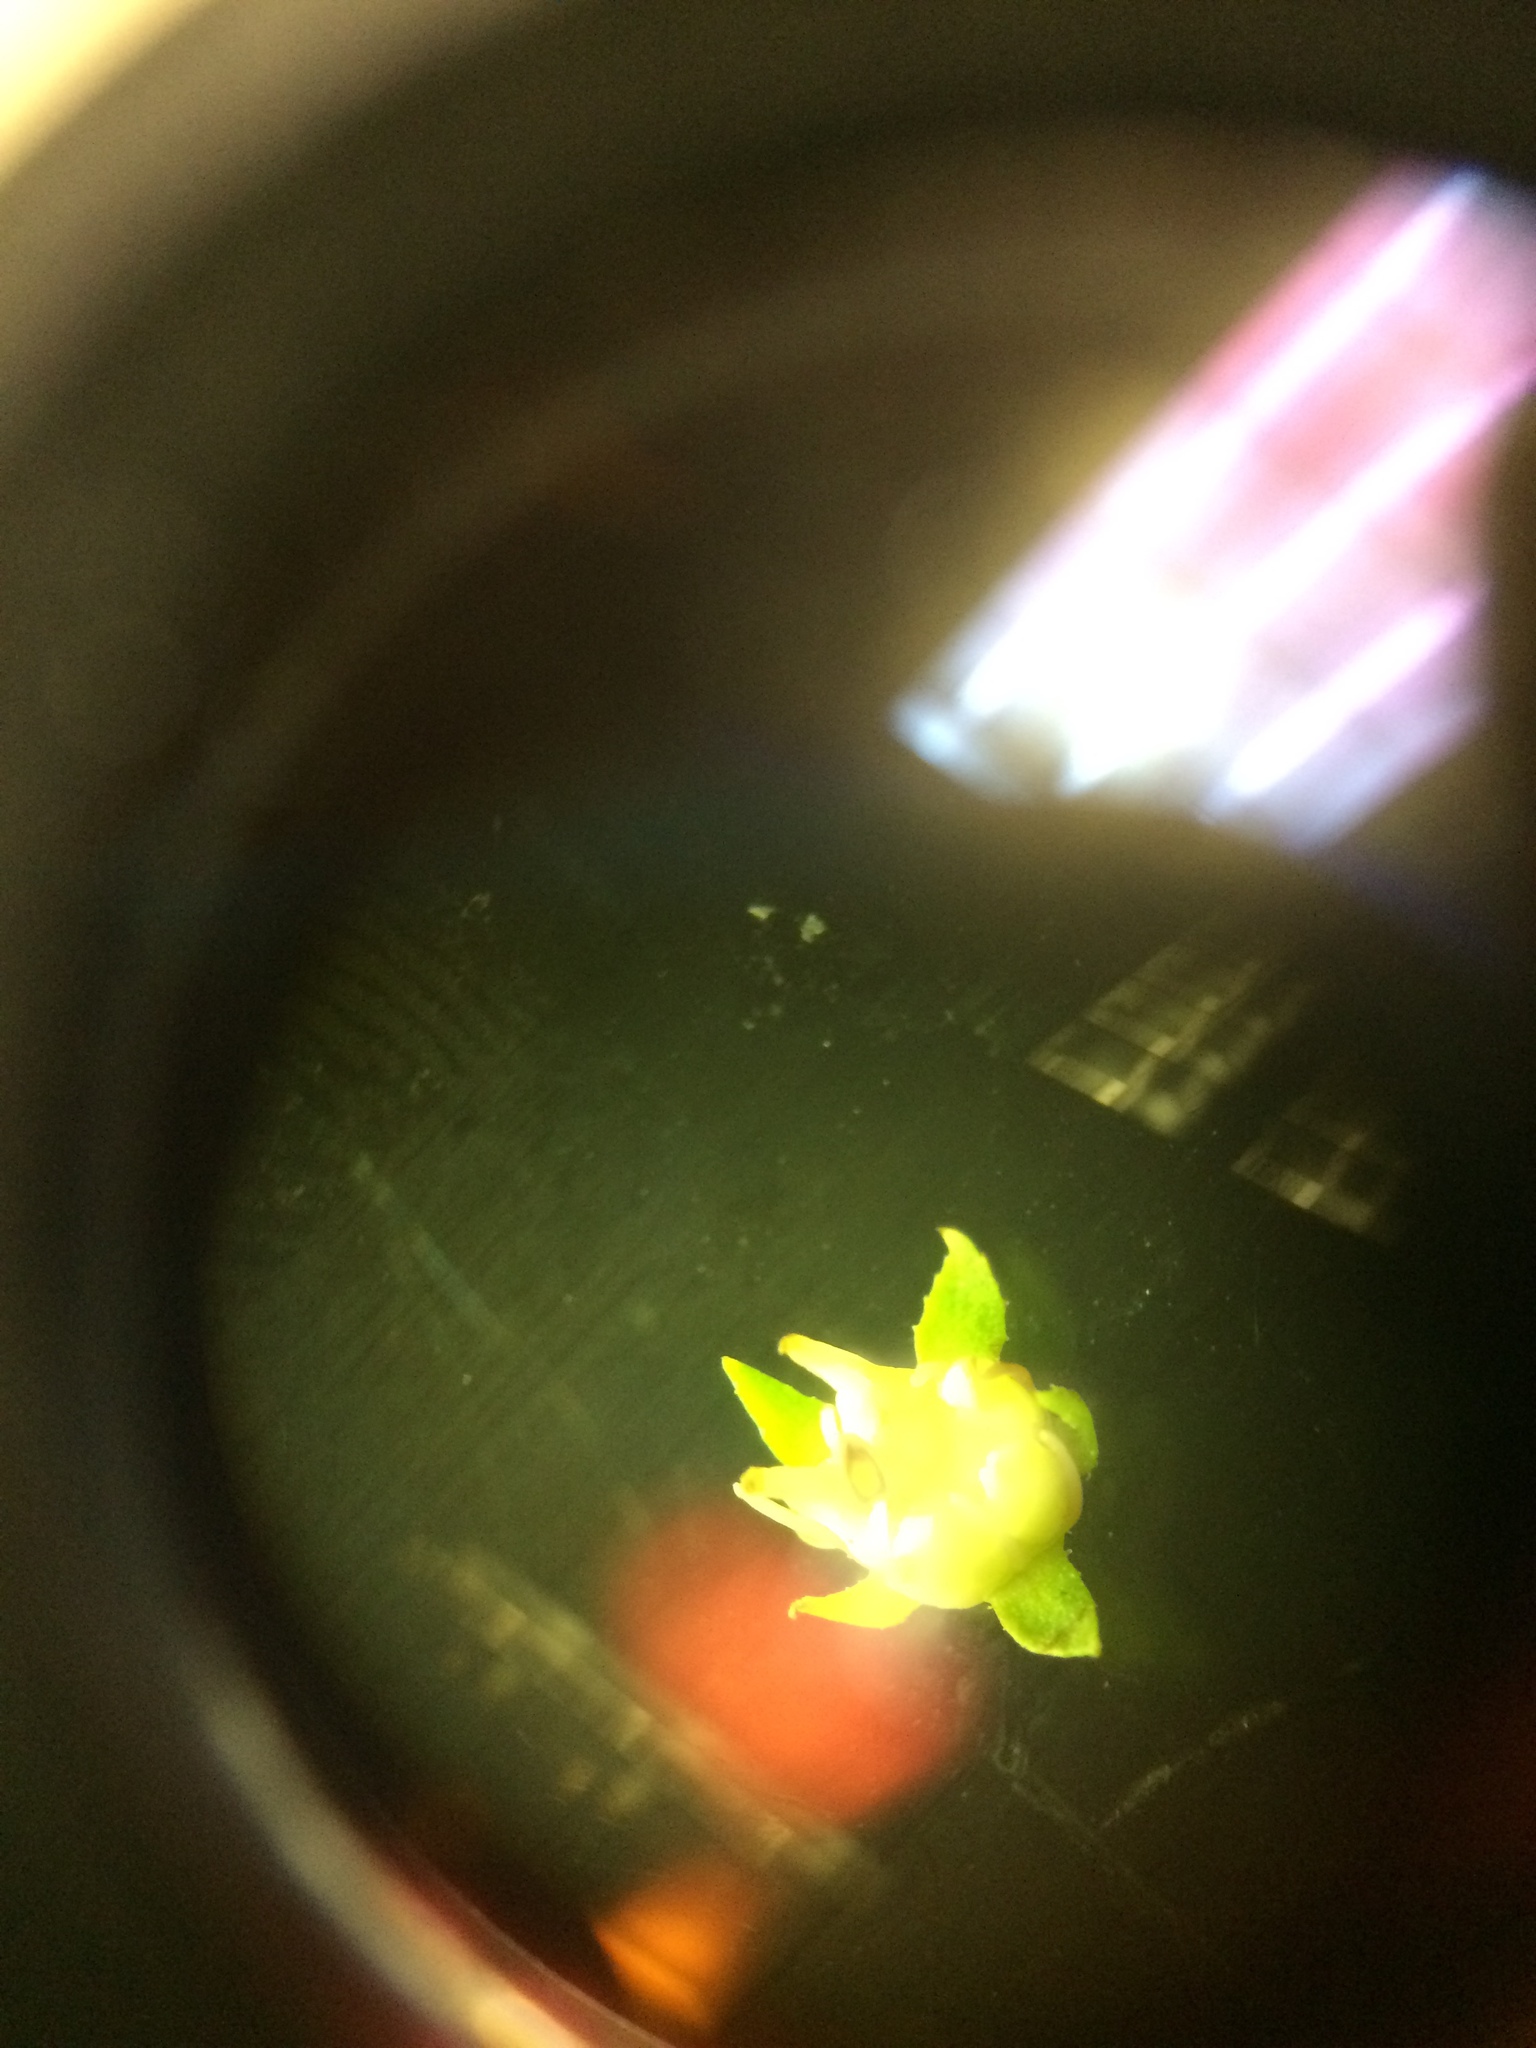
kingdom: Plantae
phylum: Tracheophyta
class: Magnoliopsida
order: Saxifragales
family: Penthoraceae
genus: Penthorum
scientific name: Penthorum sedoides
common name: Ditch stonecrop
